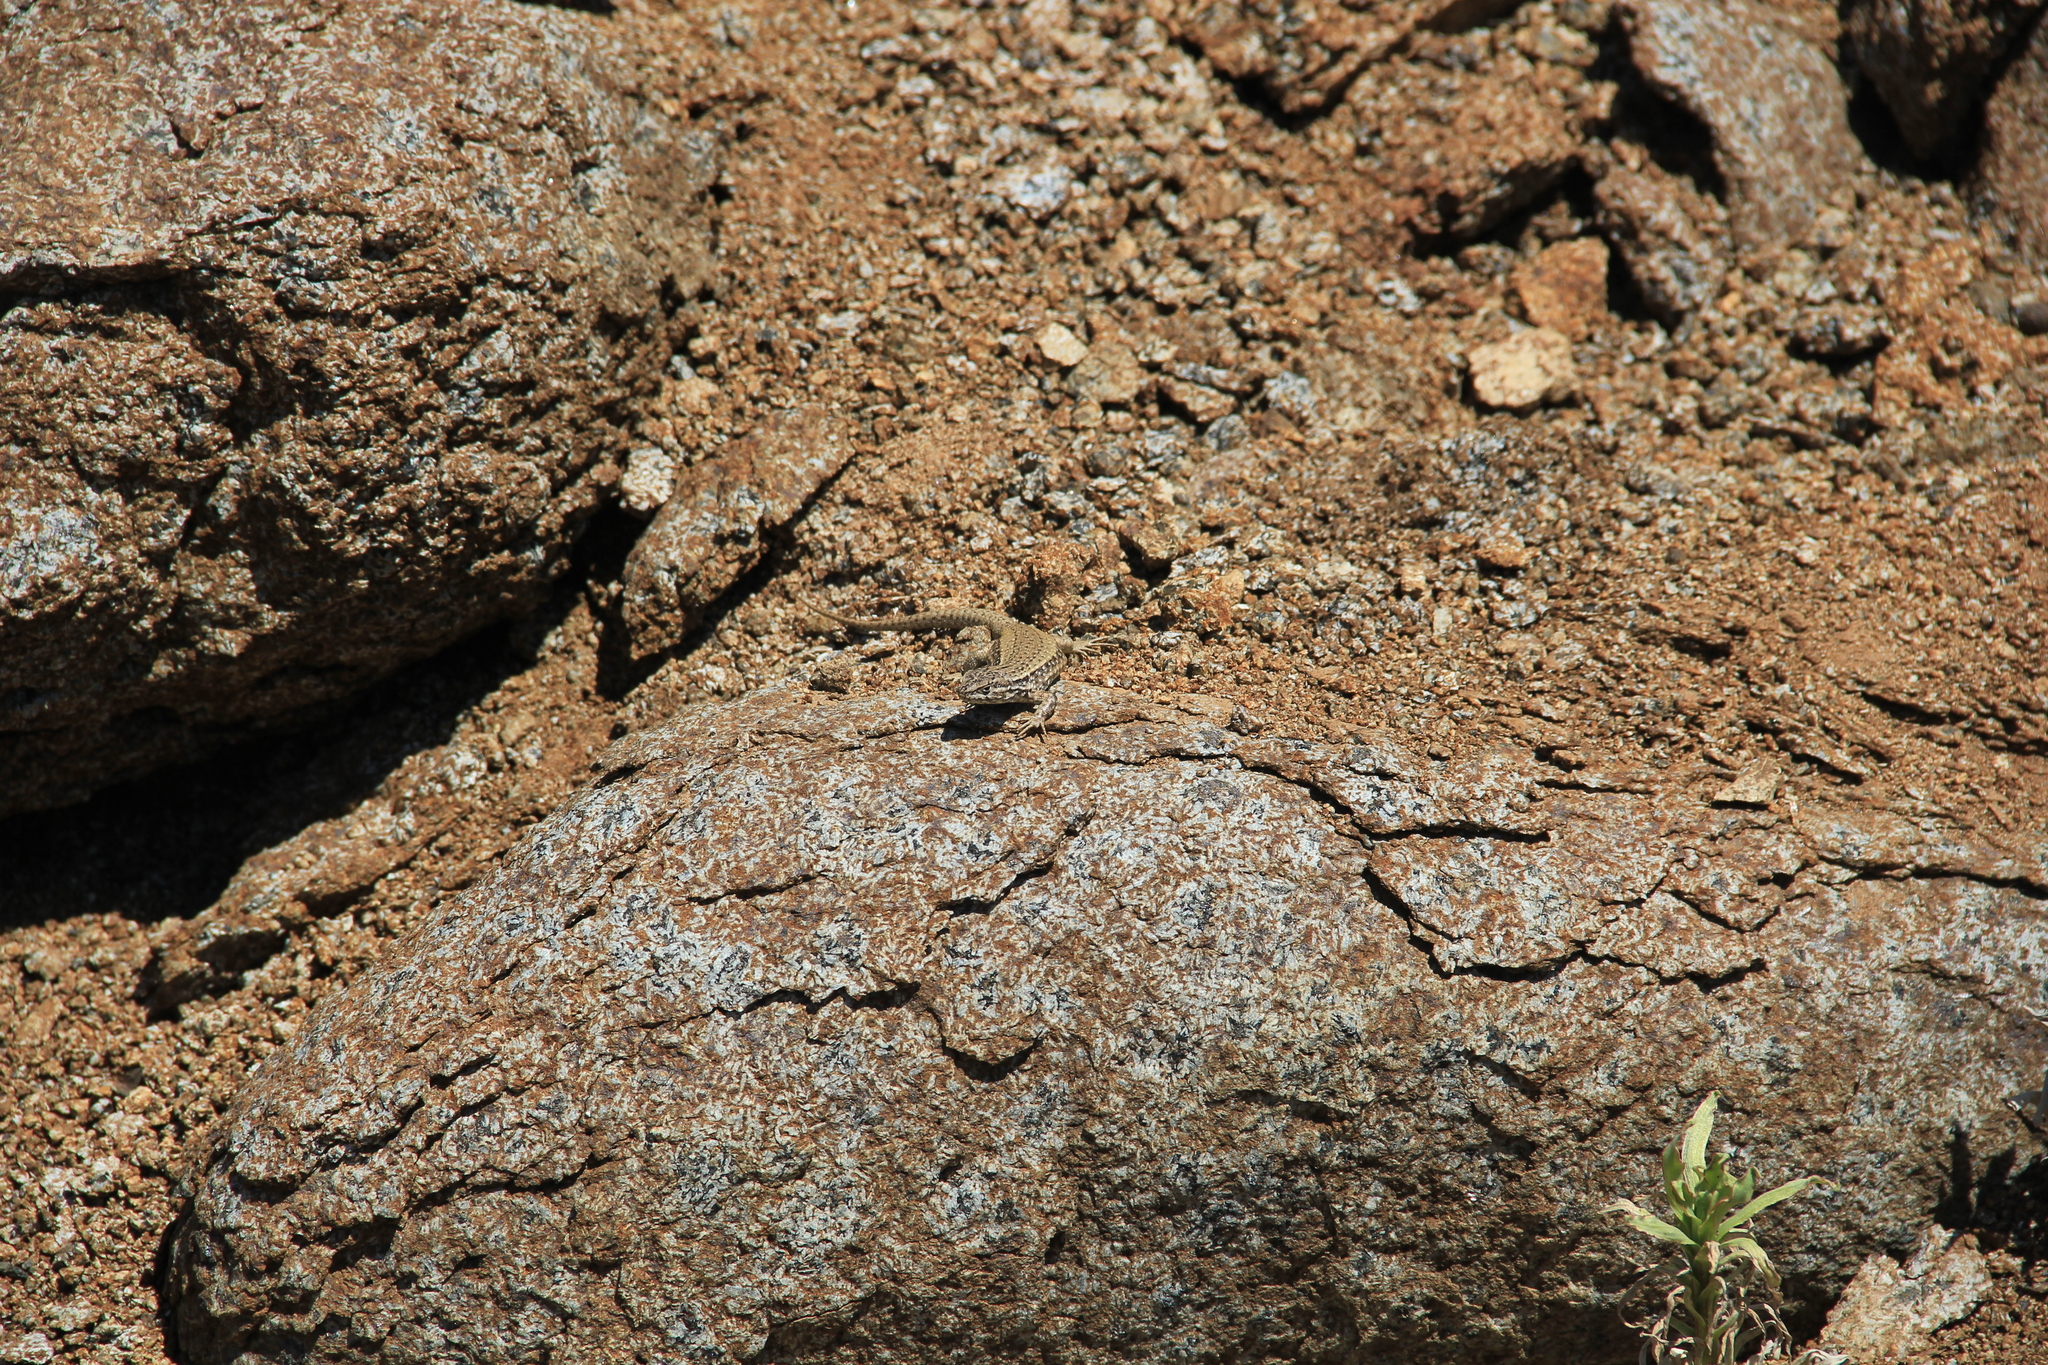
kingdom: Animalia
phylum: Chordata
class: Squamata
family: Liolaemidae
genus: Liolaemus
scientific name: Liolaemus nigroviridis
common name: Black-green tree iguana
